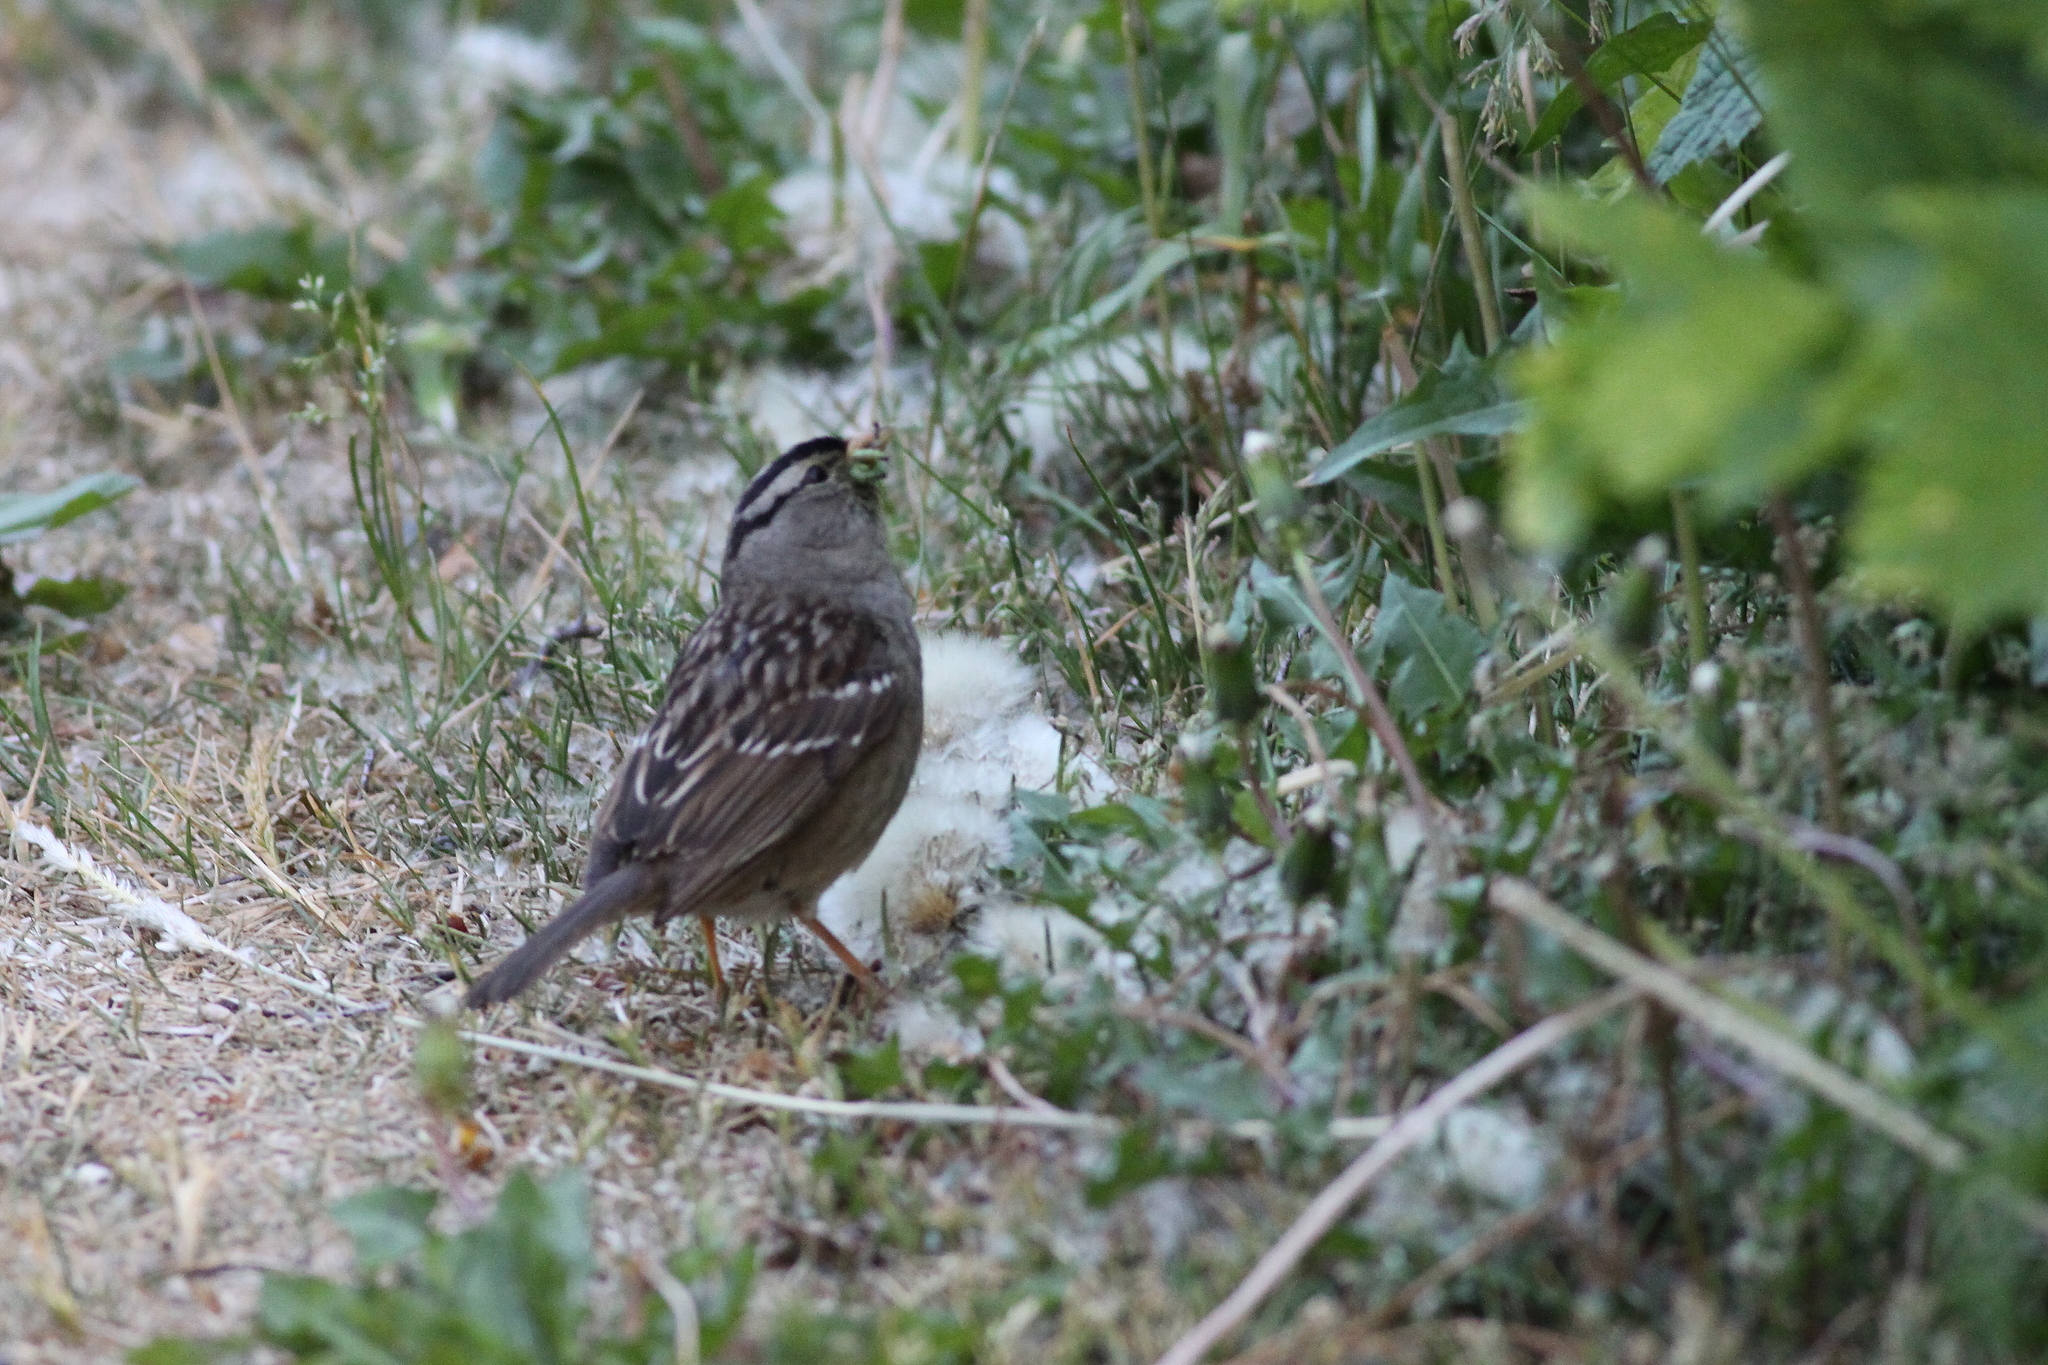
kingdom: Animalia
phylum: Chordata
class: Aves
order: Passeriformes
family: Passerellidae
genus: Zonotrichia
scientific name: Zonotrichia leucophrys
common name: White-crowned sparrow
